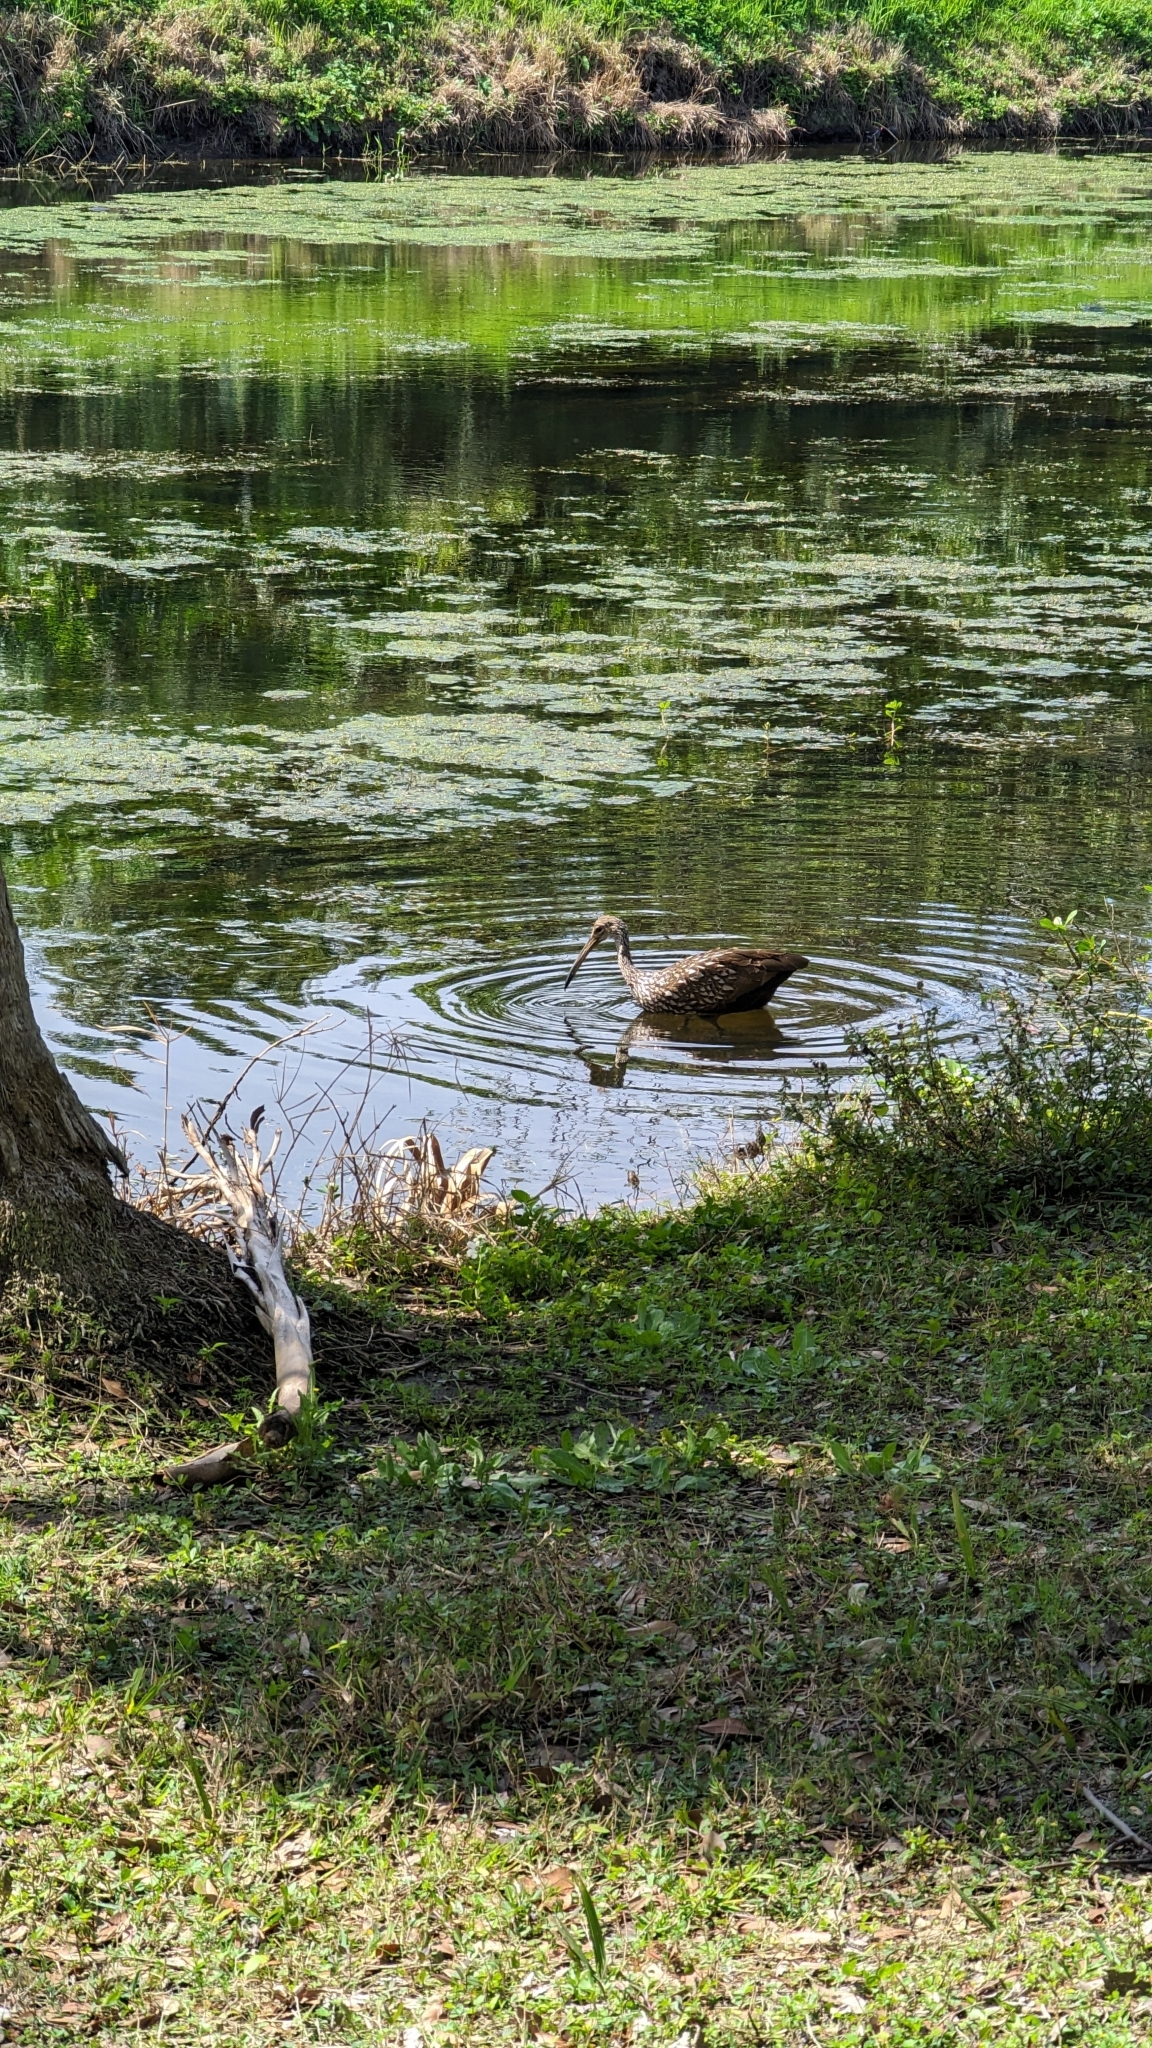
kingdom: Animalia
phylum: Chordata
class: Aves
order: Gruiformes
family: Aramidae
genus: Aramus
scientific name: Aramus guarauna
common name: Limpkin
